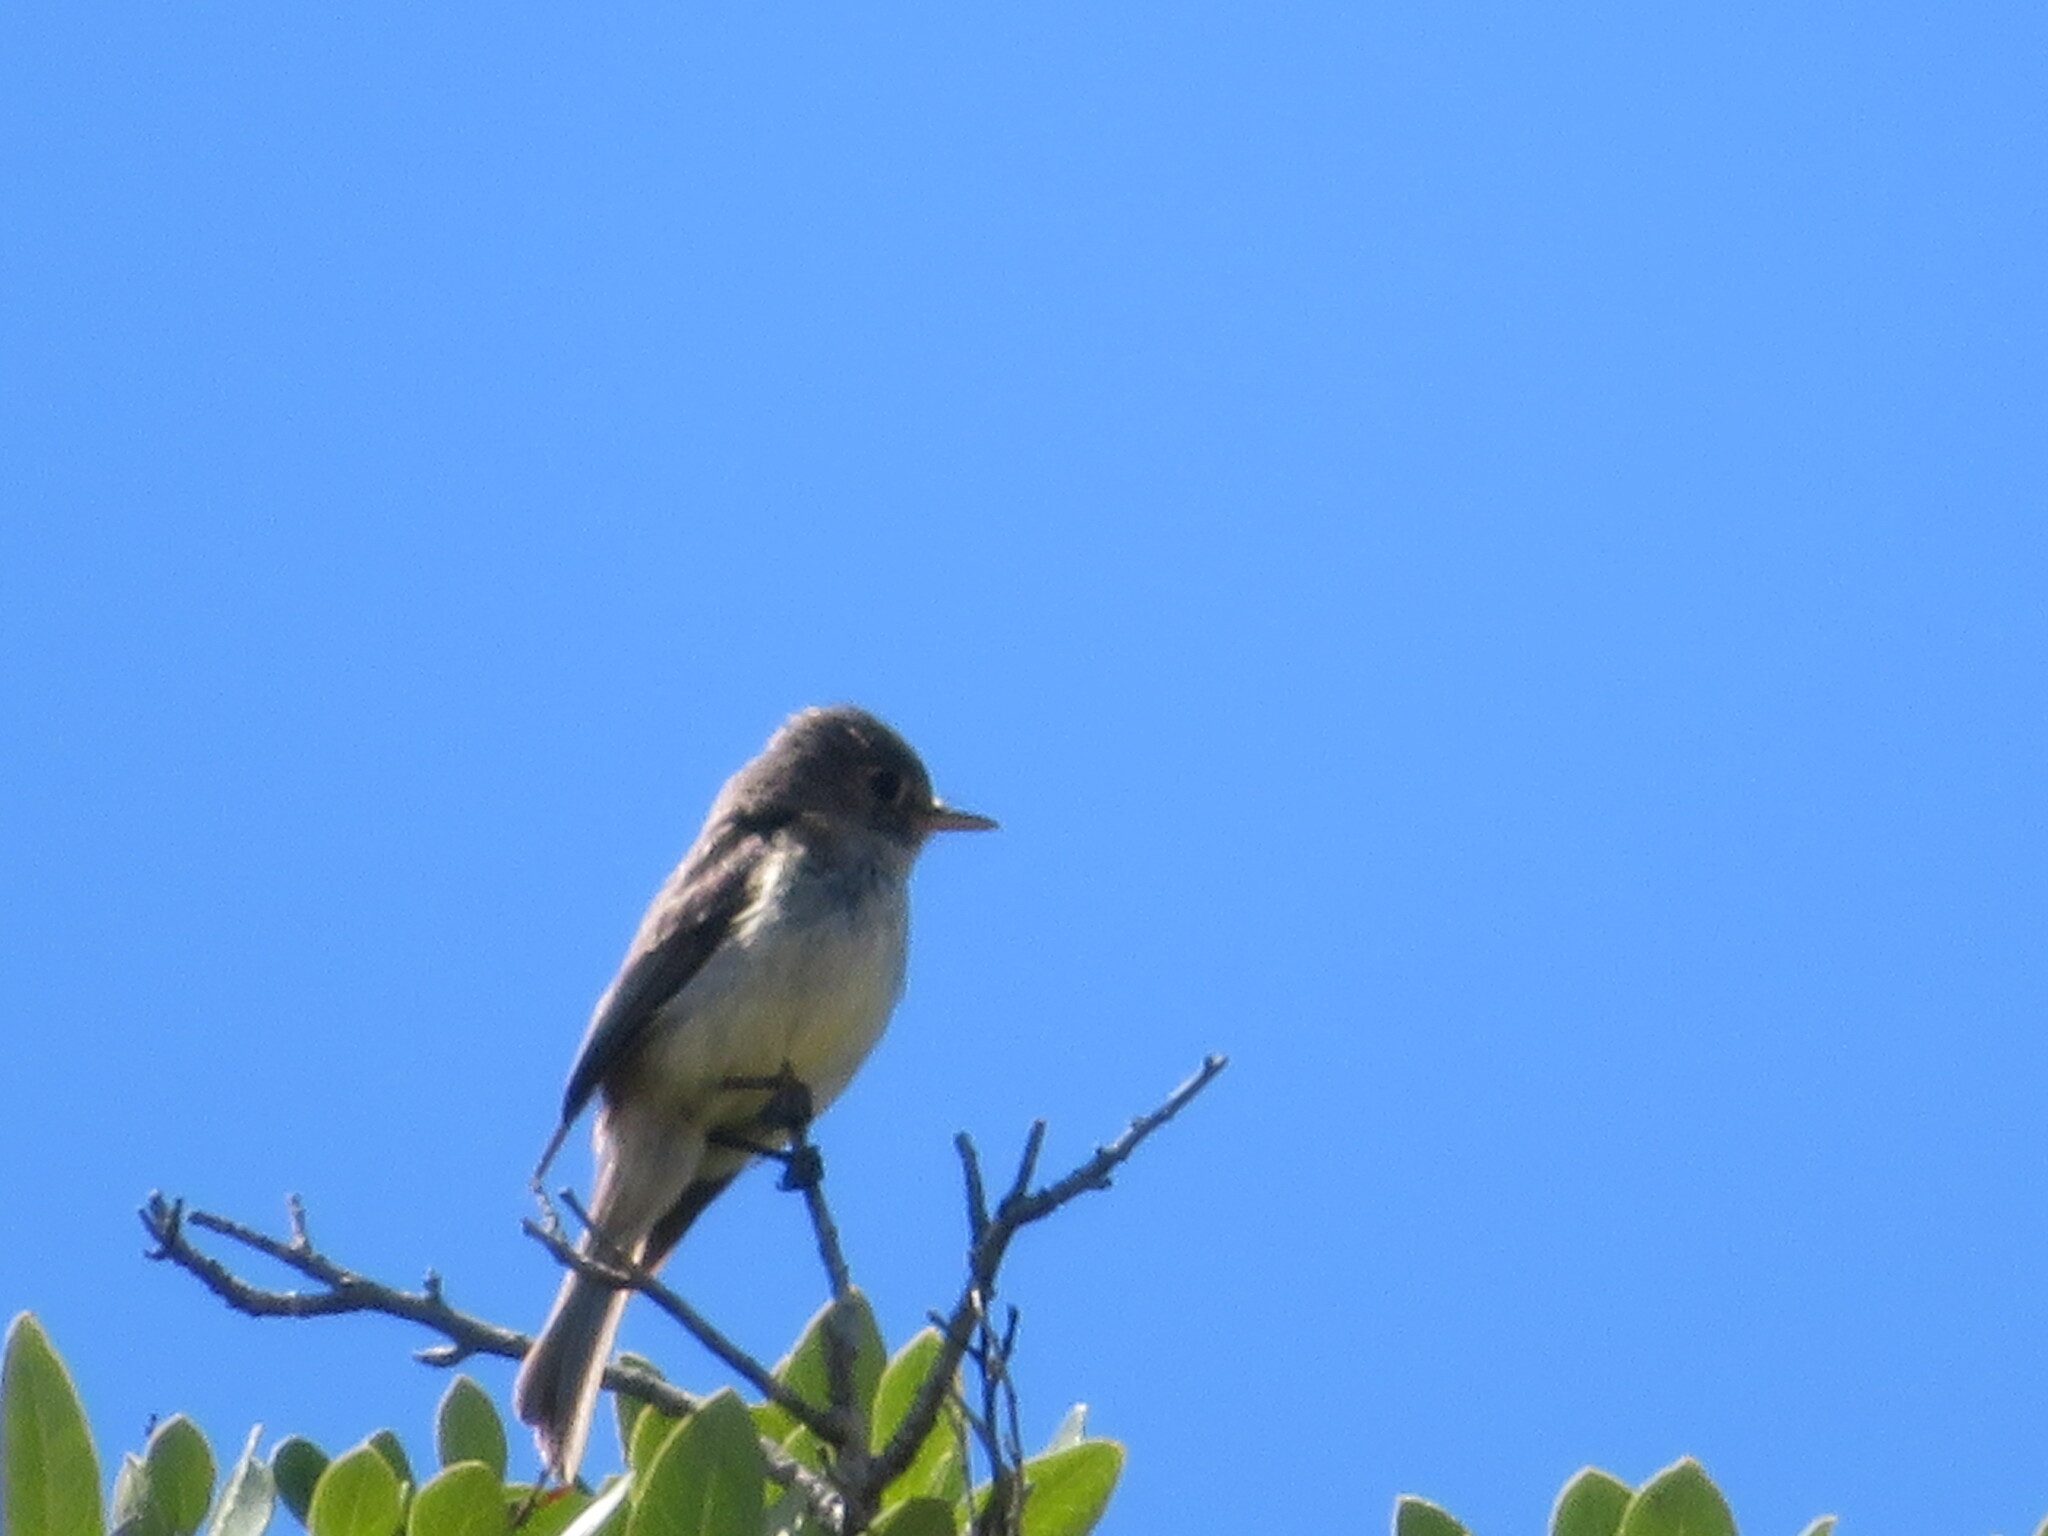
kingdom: Animalia
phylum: Chordata
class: Aves
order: Passeriformes
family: Tyrannidae
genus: Empidonax
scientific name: Empidonax difficilis
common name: Pacific-slope flycatcher
